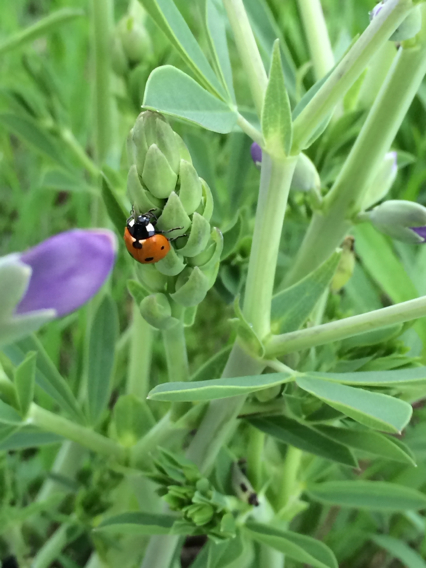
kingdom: Animalia
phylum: Arthropoda
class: Insecta
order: Coleoptera
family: Coccinellidae
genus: Coccinella
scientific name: Coccinella septempunctata
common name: Sevenspotted lady beetle
